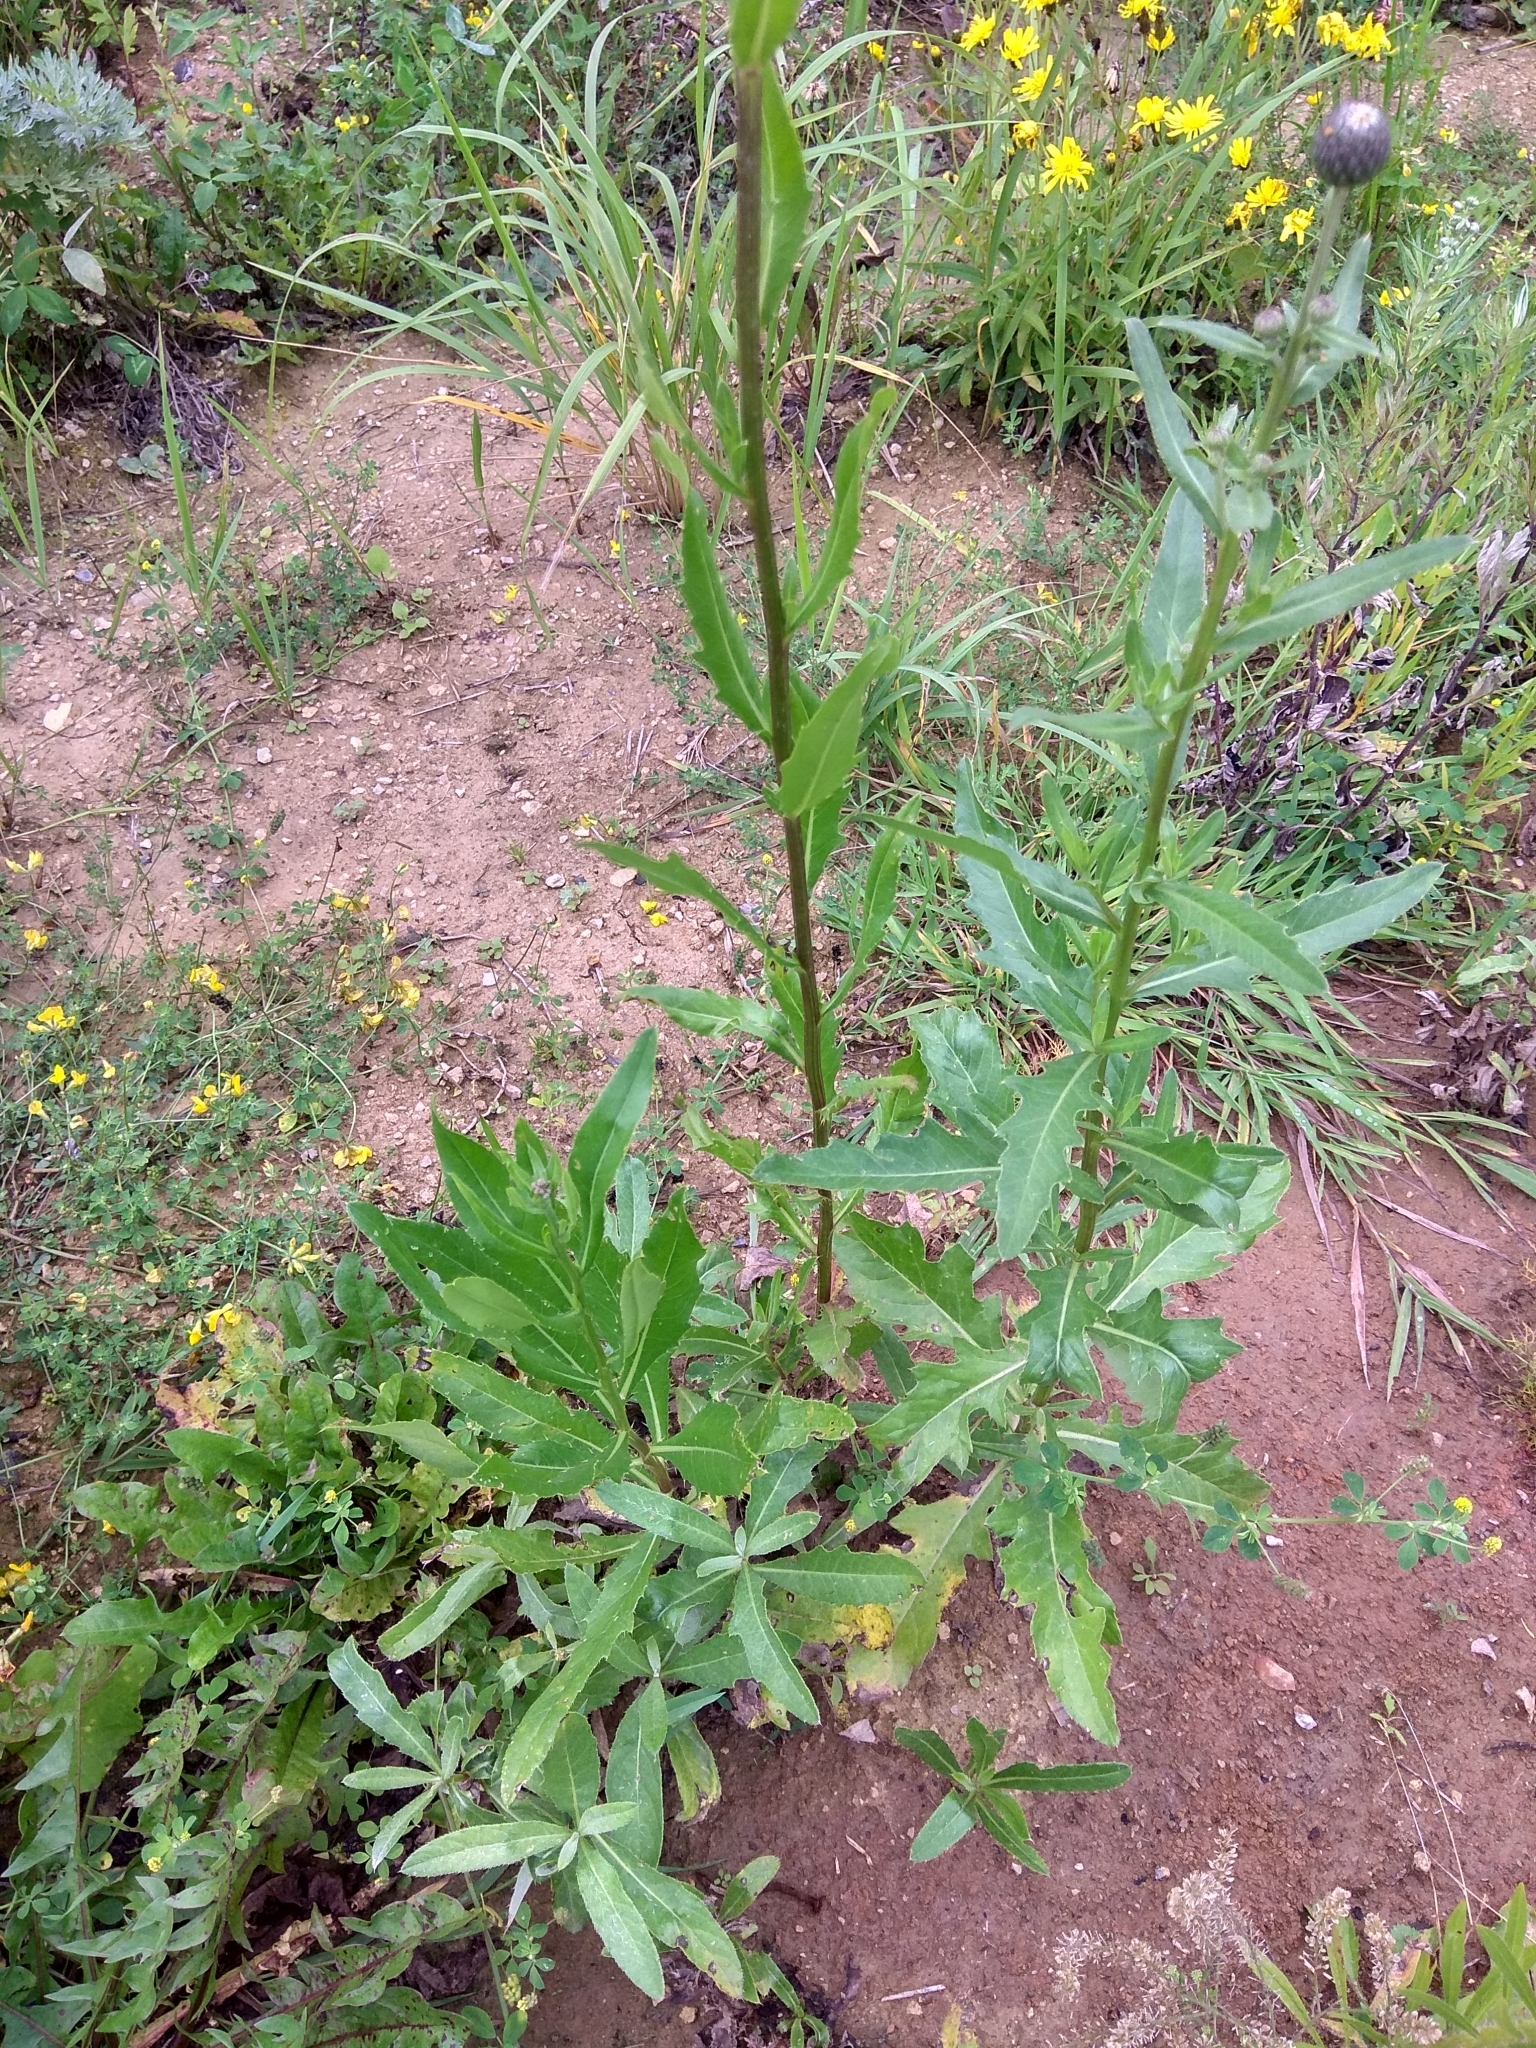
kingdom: Plantae
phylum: Tracheophyta
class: Magnoliopsida
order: Asterales
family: Asteraceae
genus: Cirsium
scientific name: Cirsium arvense
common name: Creeping thistle
